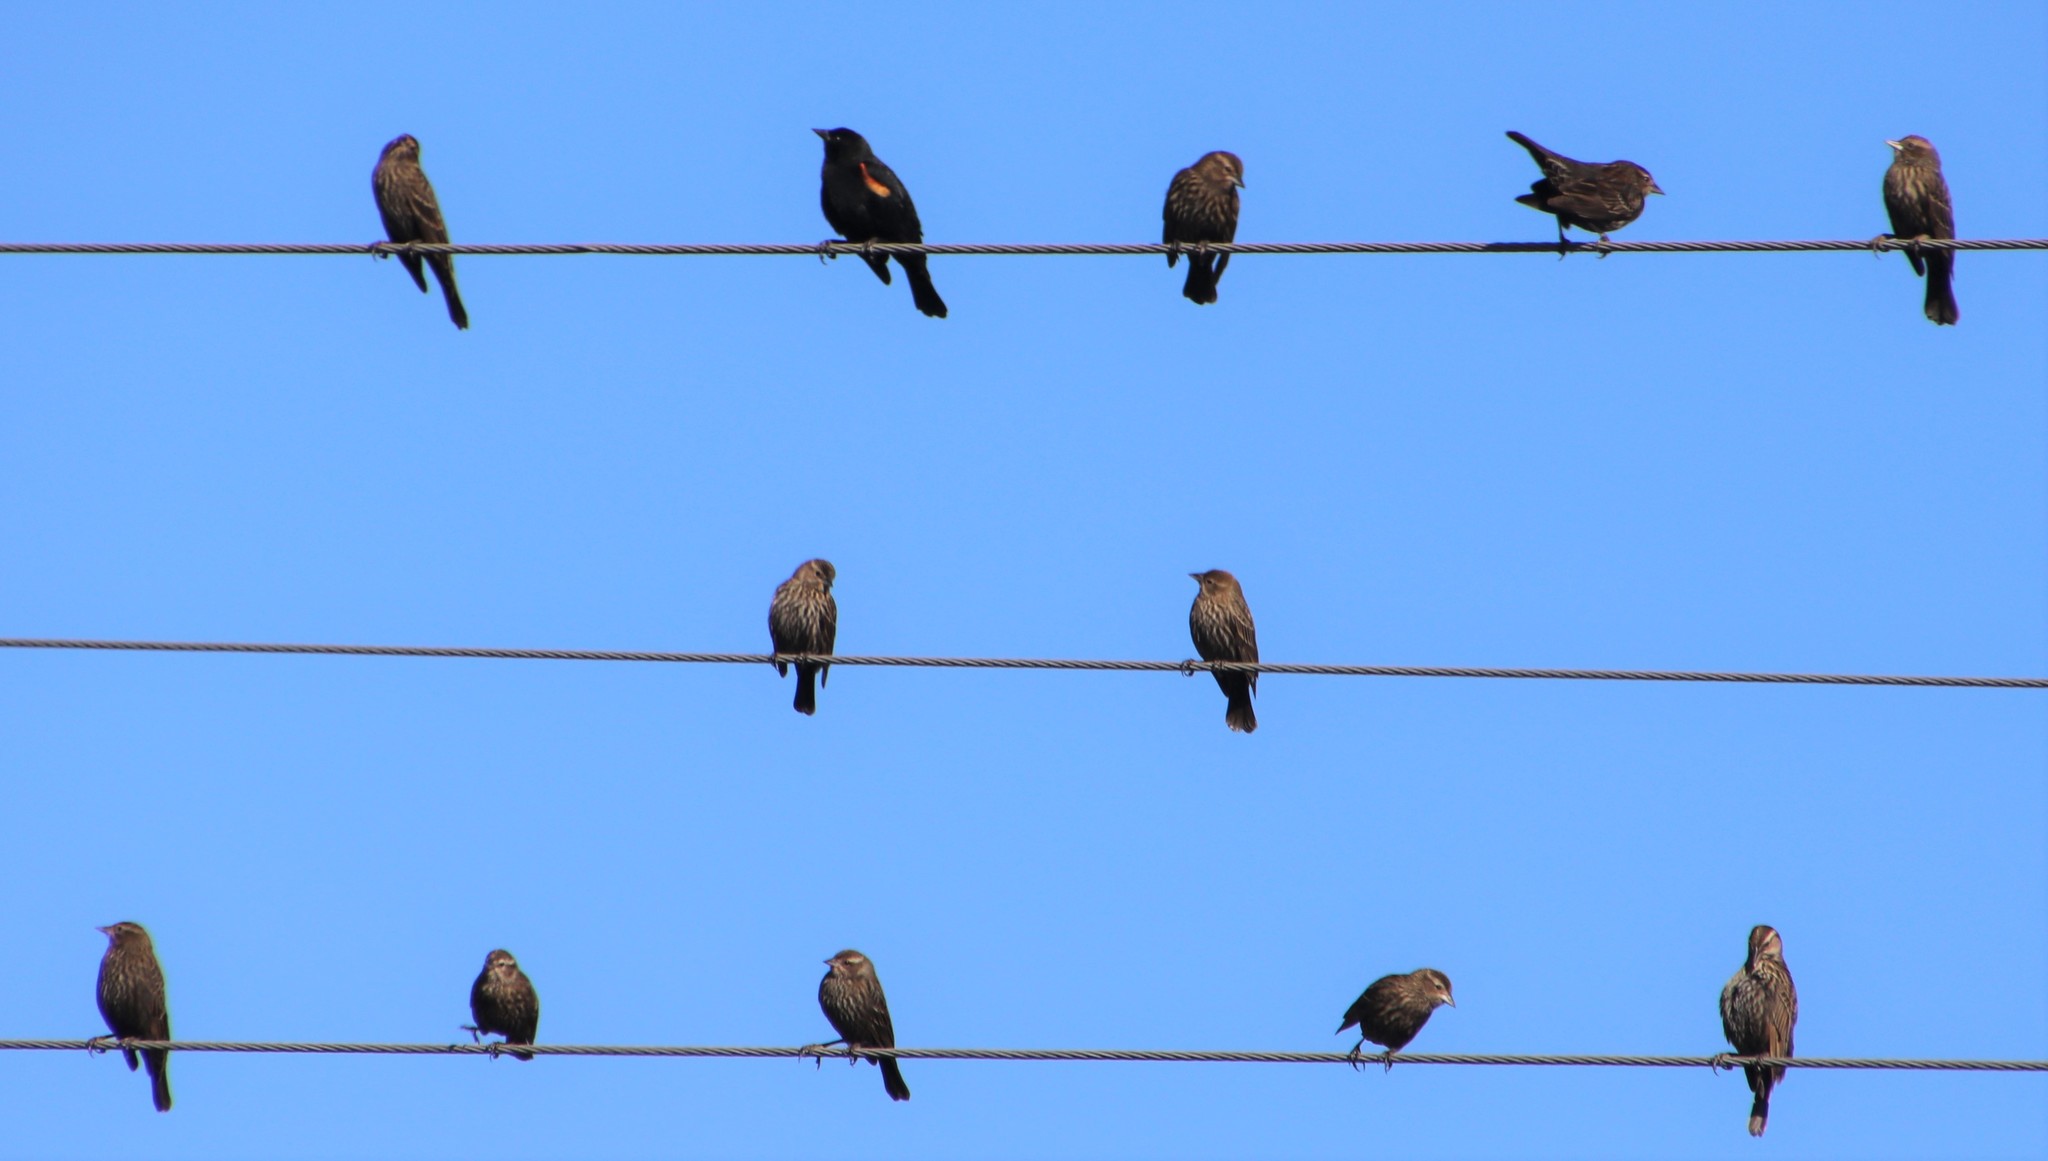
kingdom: Animalia
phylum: Chordata
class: Aves
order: Passeriformes
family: Icteridae
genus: Agelaius
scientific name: Agelaius phoeniceus
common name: Red-winged blackbird
